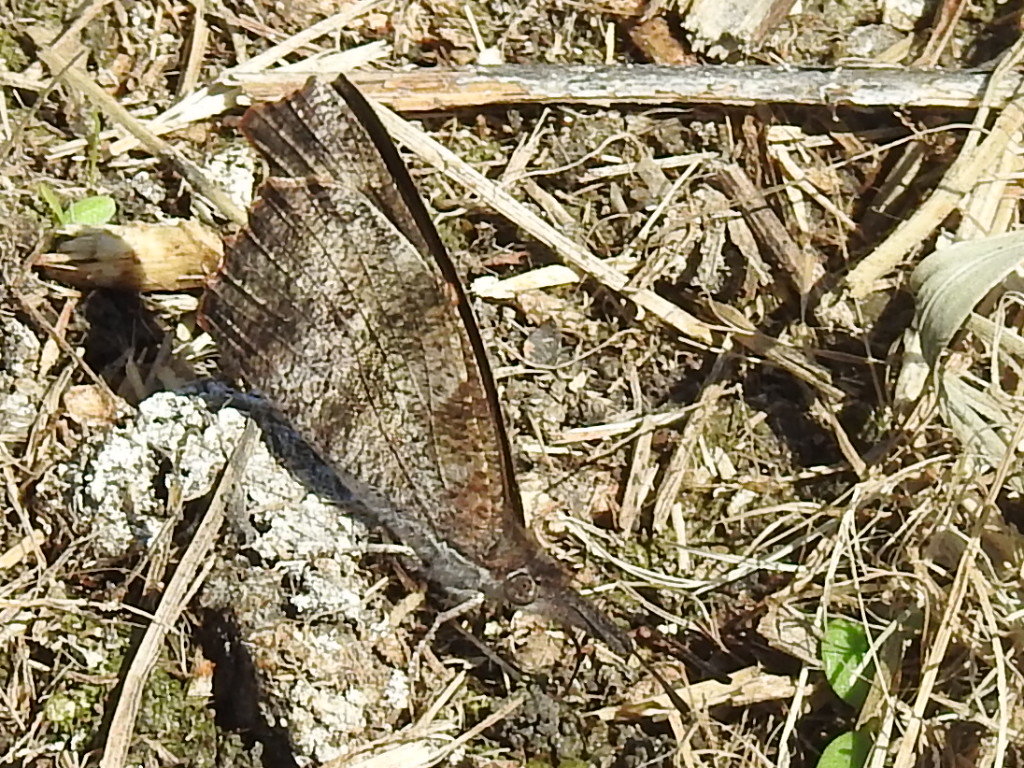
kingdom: Animalia
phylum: Arthropoda
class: Insecta
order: Lepidoptera
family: Nymphalidae
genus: Libytheana
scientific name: Libytheana carinenta
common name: American snout
